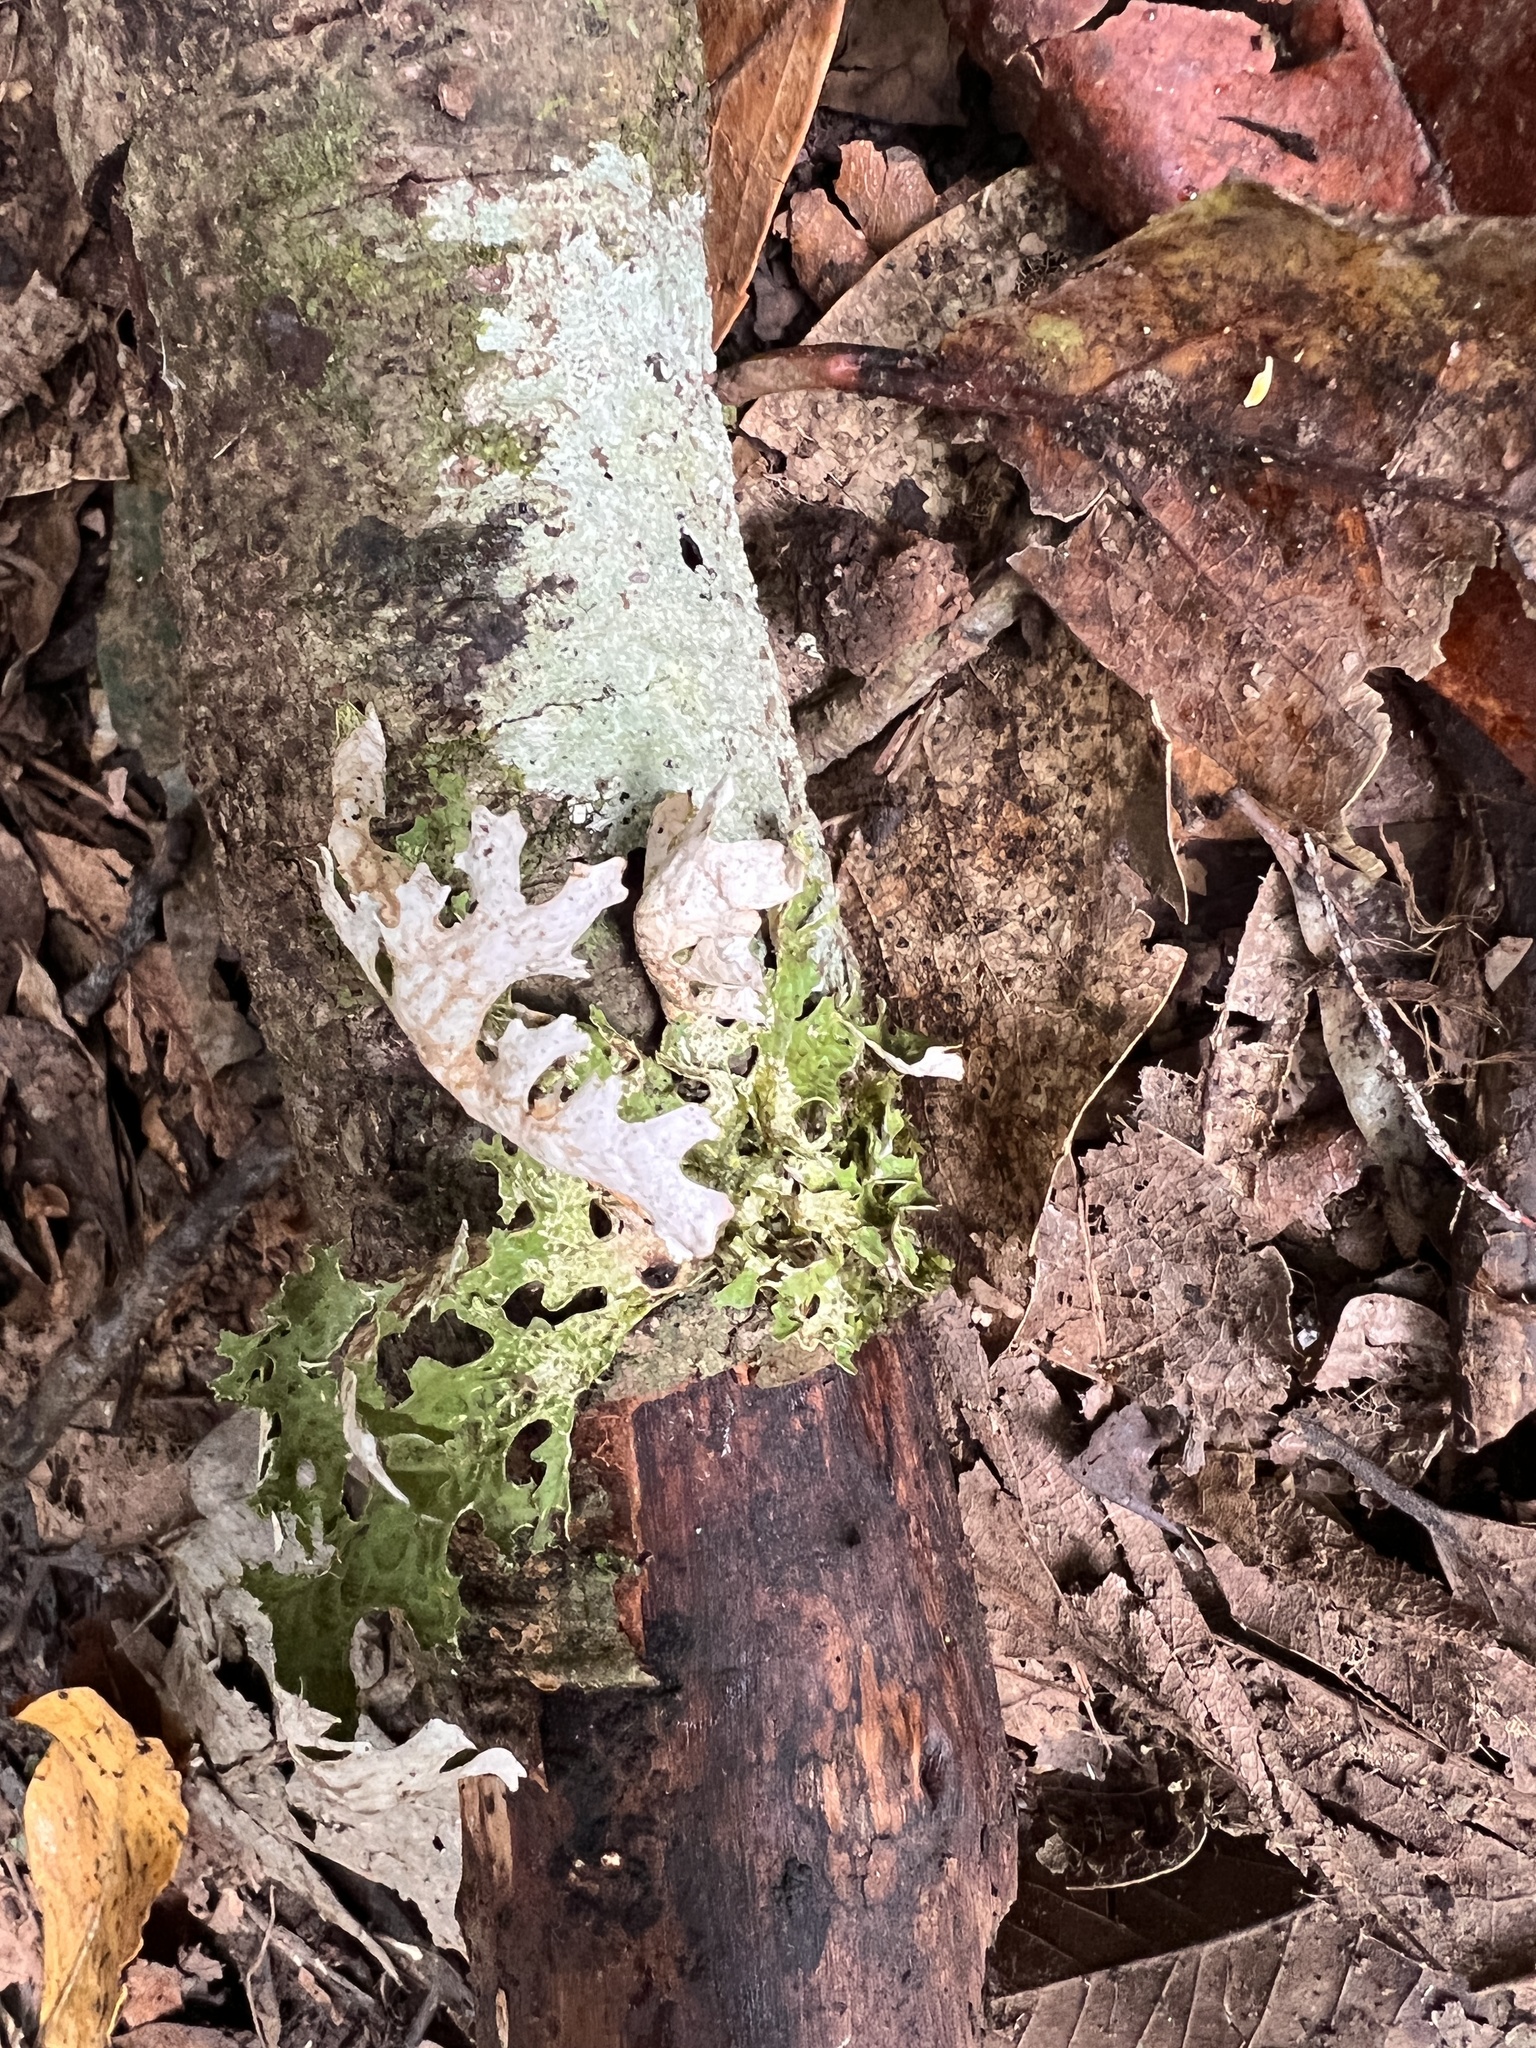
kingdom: Fungi
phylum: Ascomycota
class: Lecanoromycetes
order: Peltigerales
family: Lobariaceae
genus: Lobaria
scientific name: Lobaria pulmonaria
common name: Lungwort
